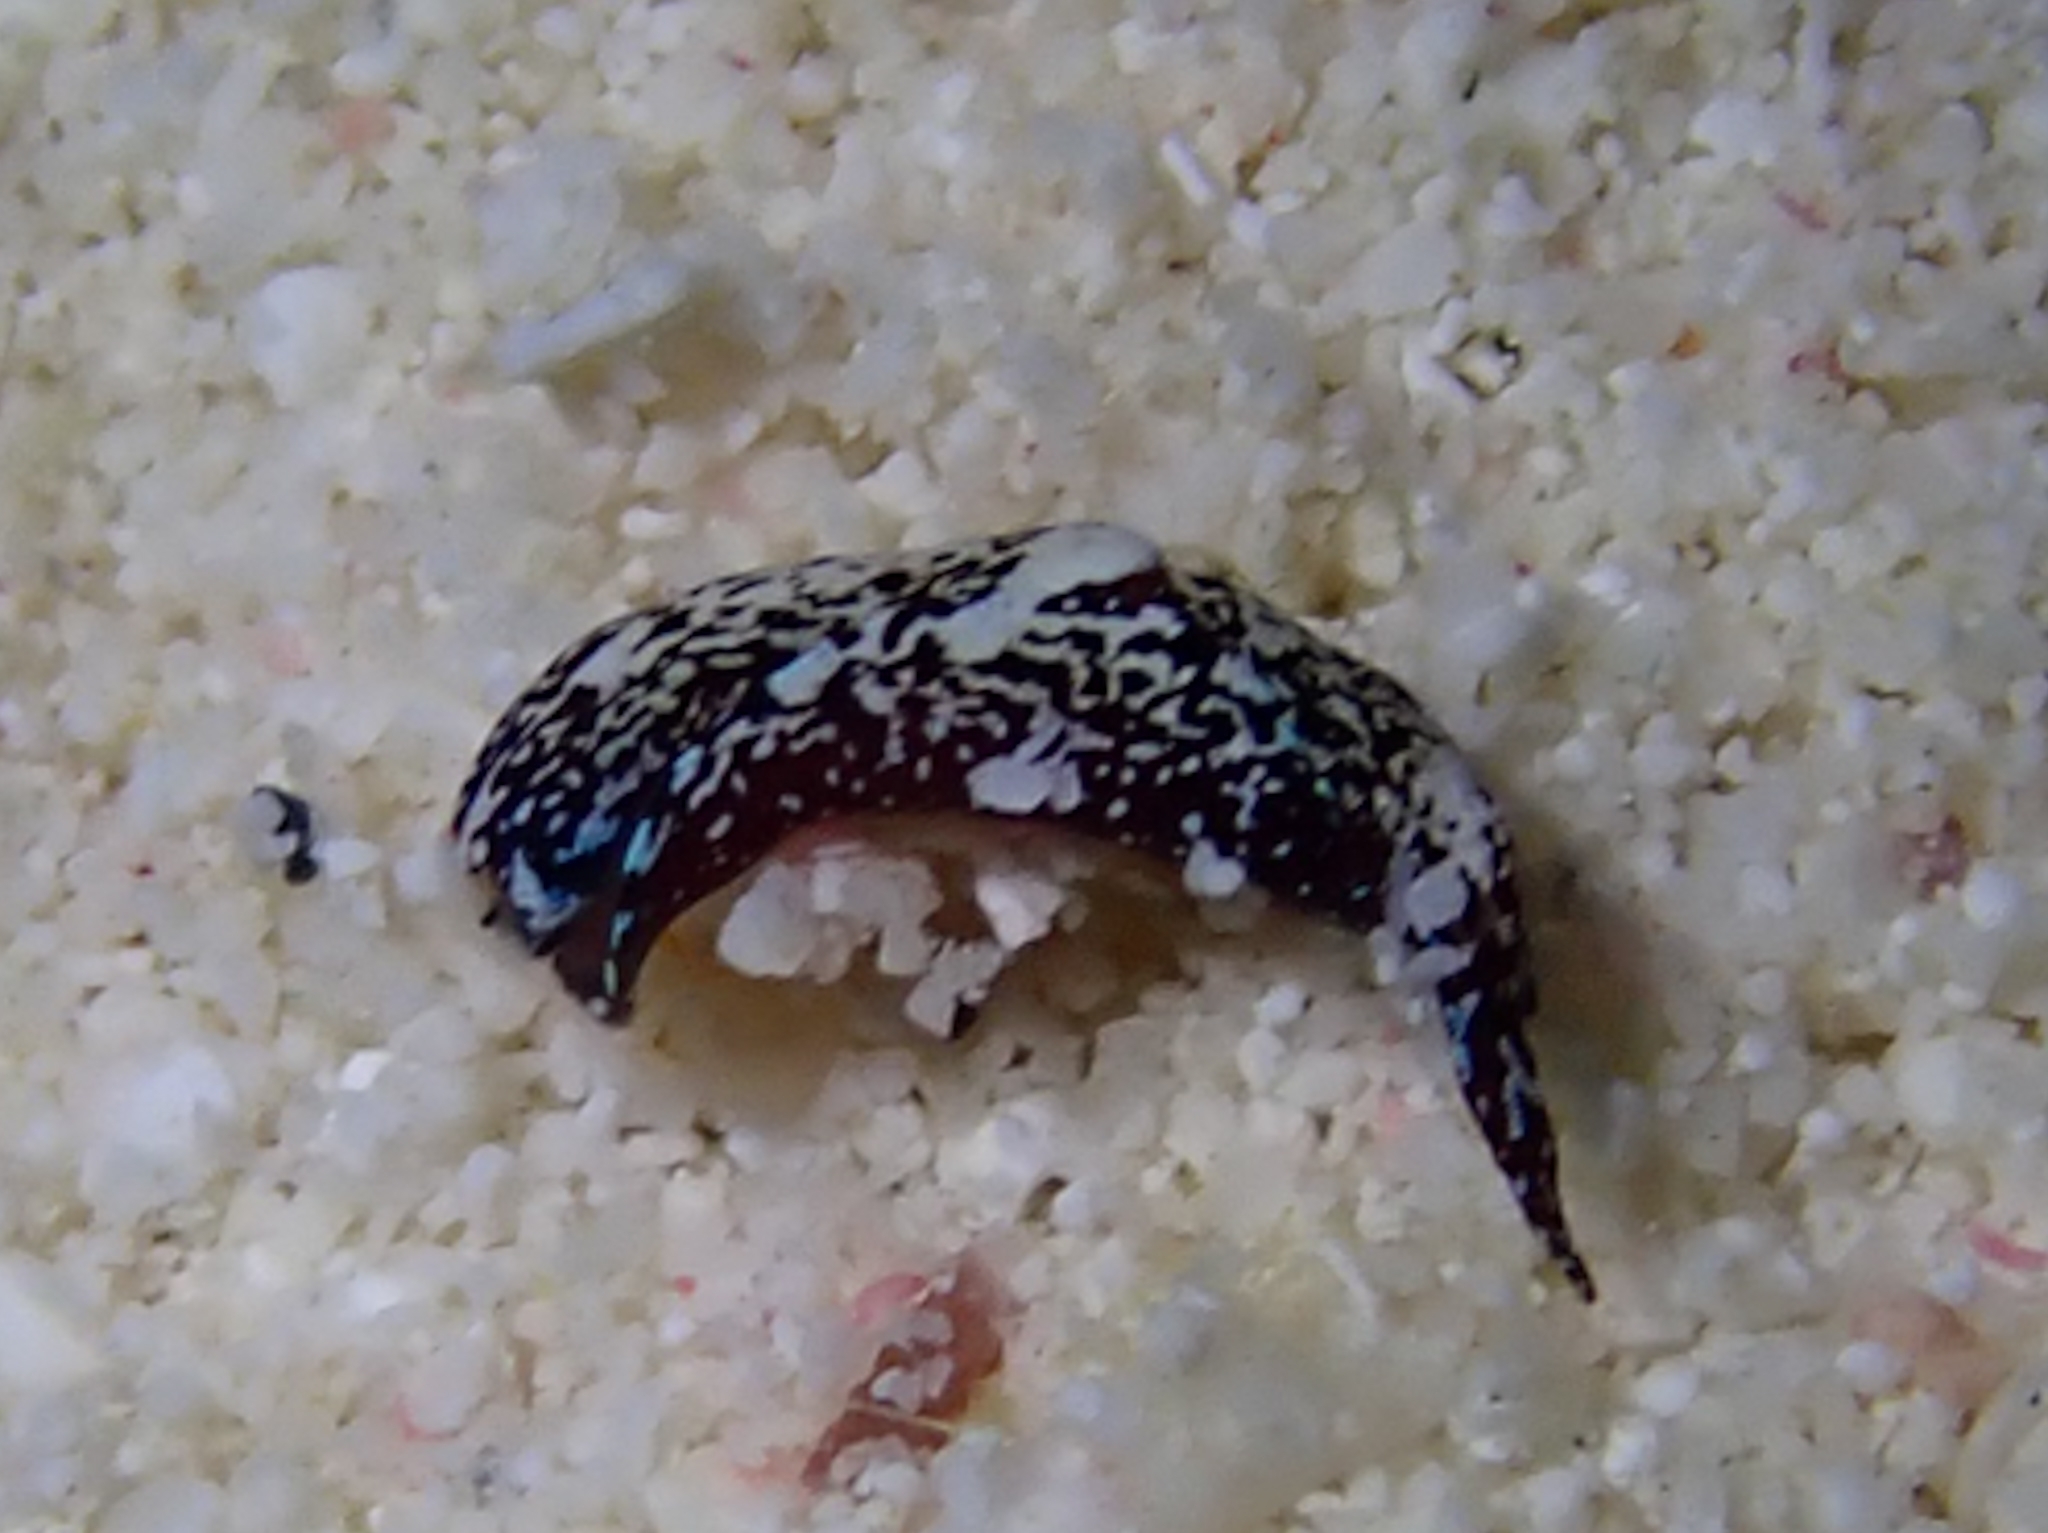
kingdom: Animalia
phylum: Mollusca
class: Gastropoda
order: Cephalaspidea
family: Aglajidae
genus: Camachoaglaja
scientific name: Camachoaglaja mariagordae
